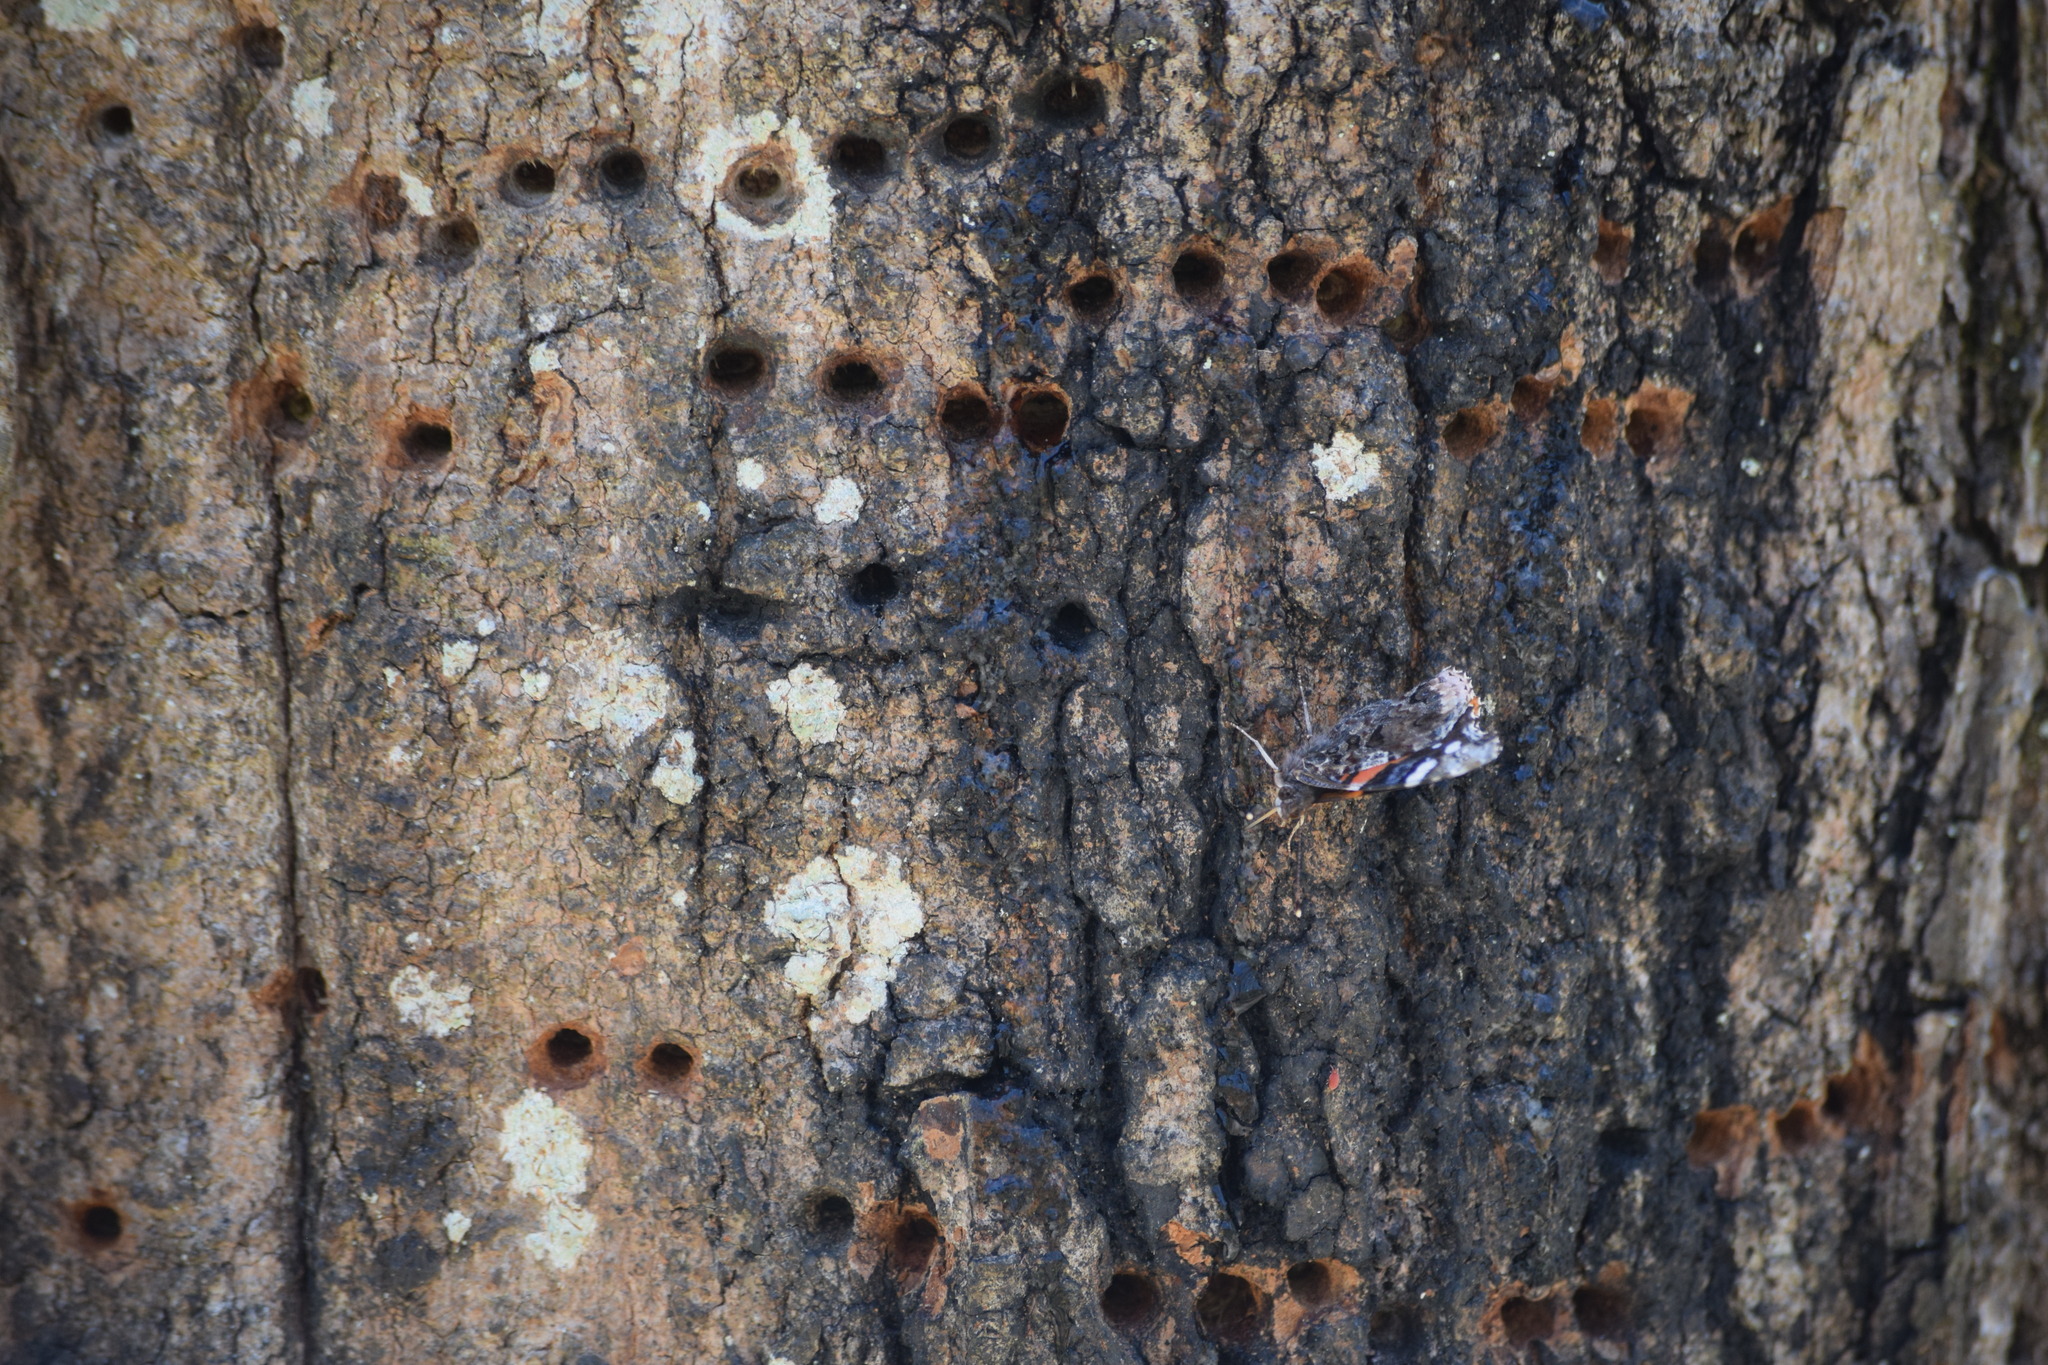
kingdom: Animalia
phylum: Arthropoda
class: Insecta
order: Lepidoptera
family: Nymphalidae
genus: Vanessa
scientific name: Vanessa atalanta
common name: Red admiral
